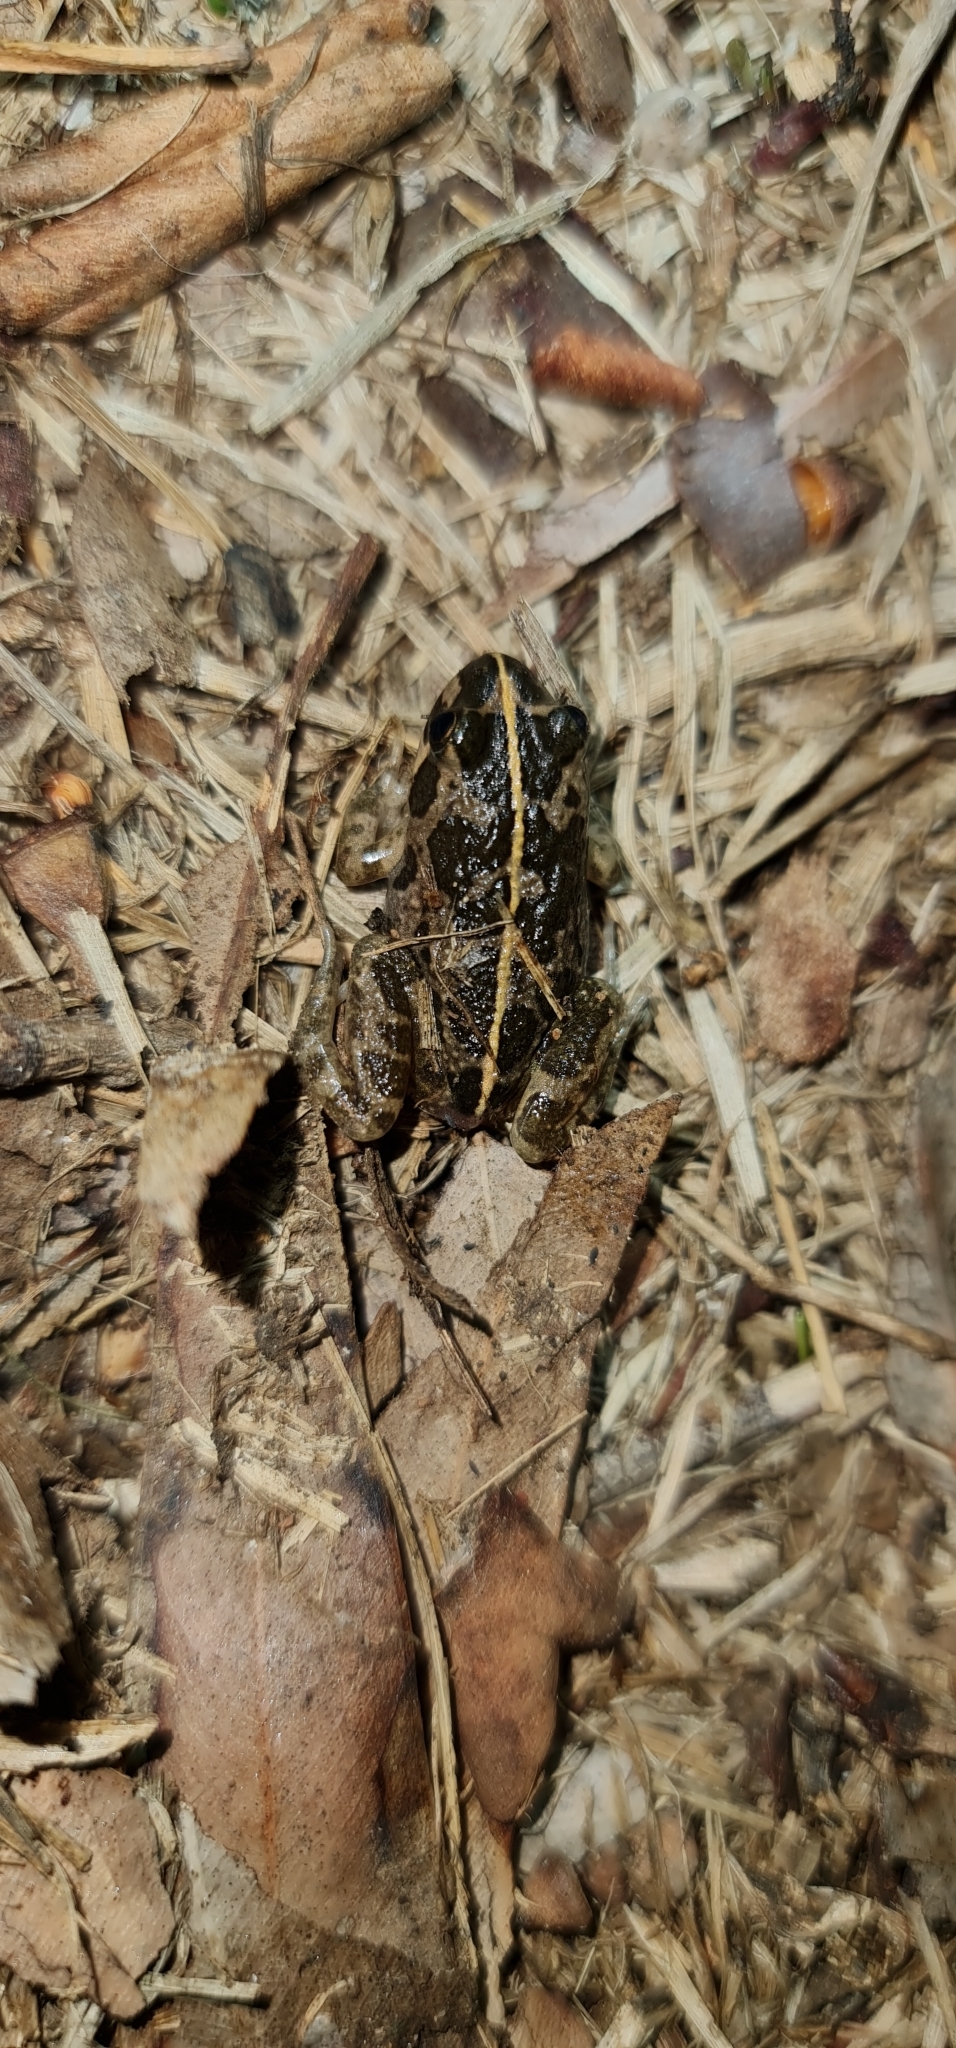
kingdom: Animalia
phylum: Chordata
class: Amphibia
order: Anura
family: Limnodynastidae
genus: Limnodynastes
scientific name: Limnodynastes tasmaniensis
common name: Spotted marsh frog
